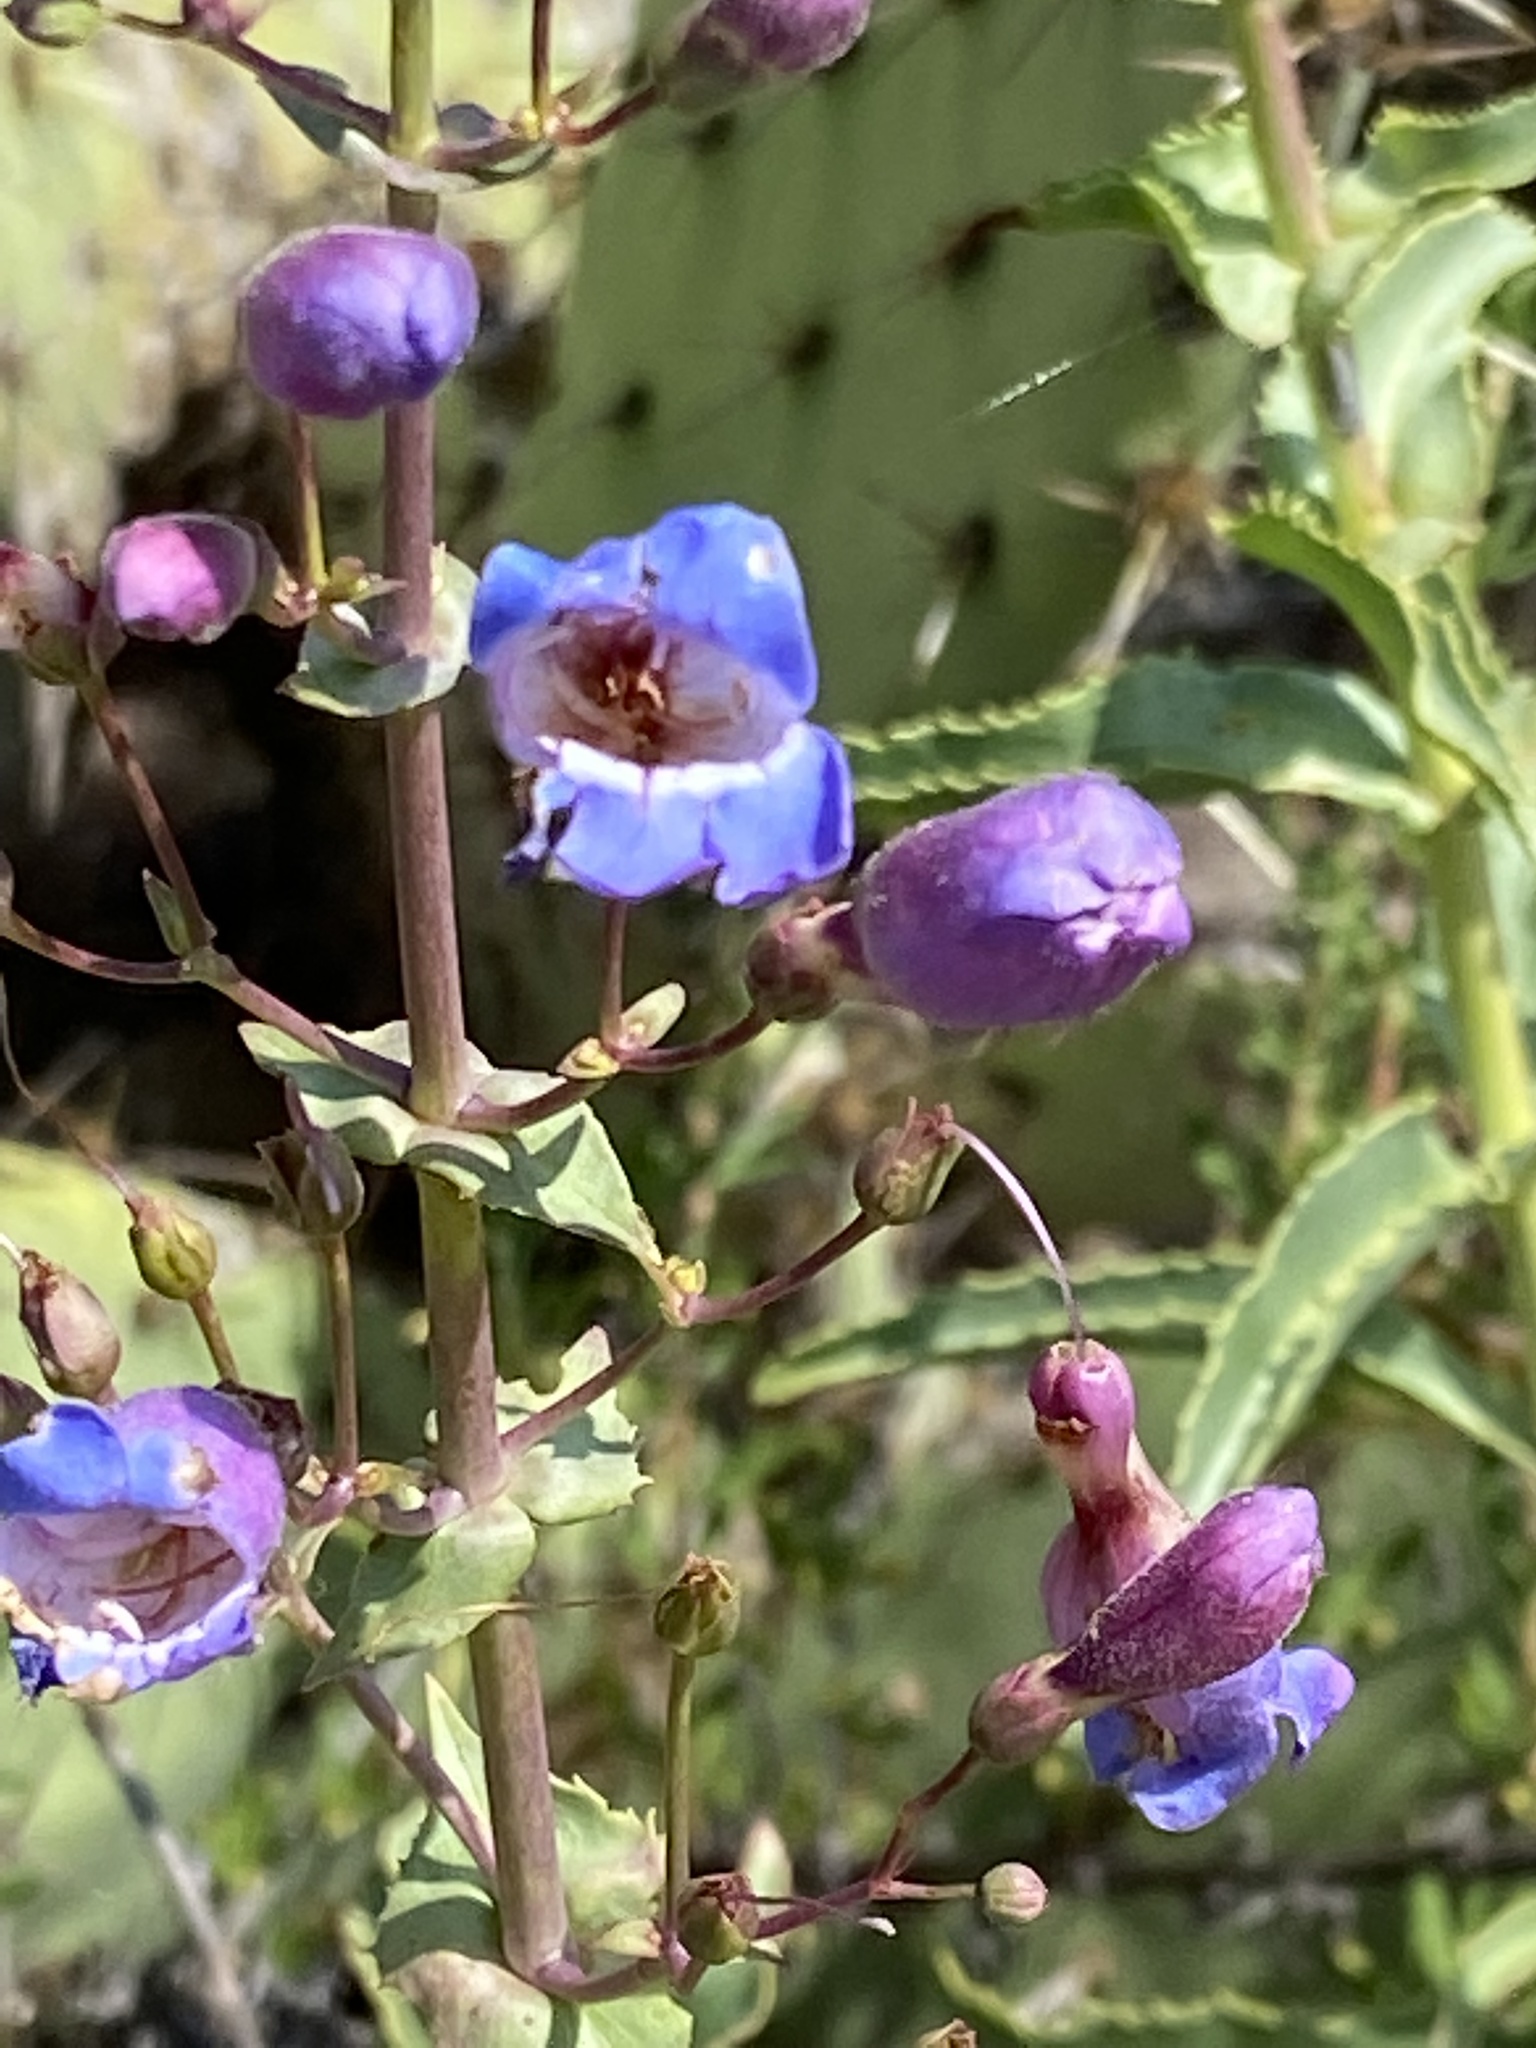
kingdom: Plantae
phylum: Tracheophyta
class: Magnoliopsida
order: Lamiales
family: Plantaginaceae
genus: Penstemon
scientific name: Penstemon spectabilis
